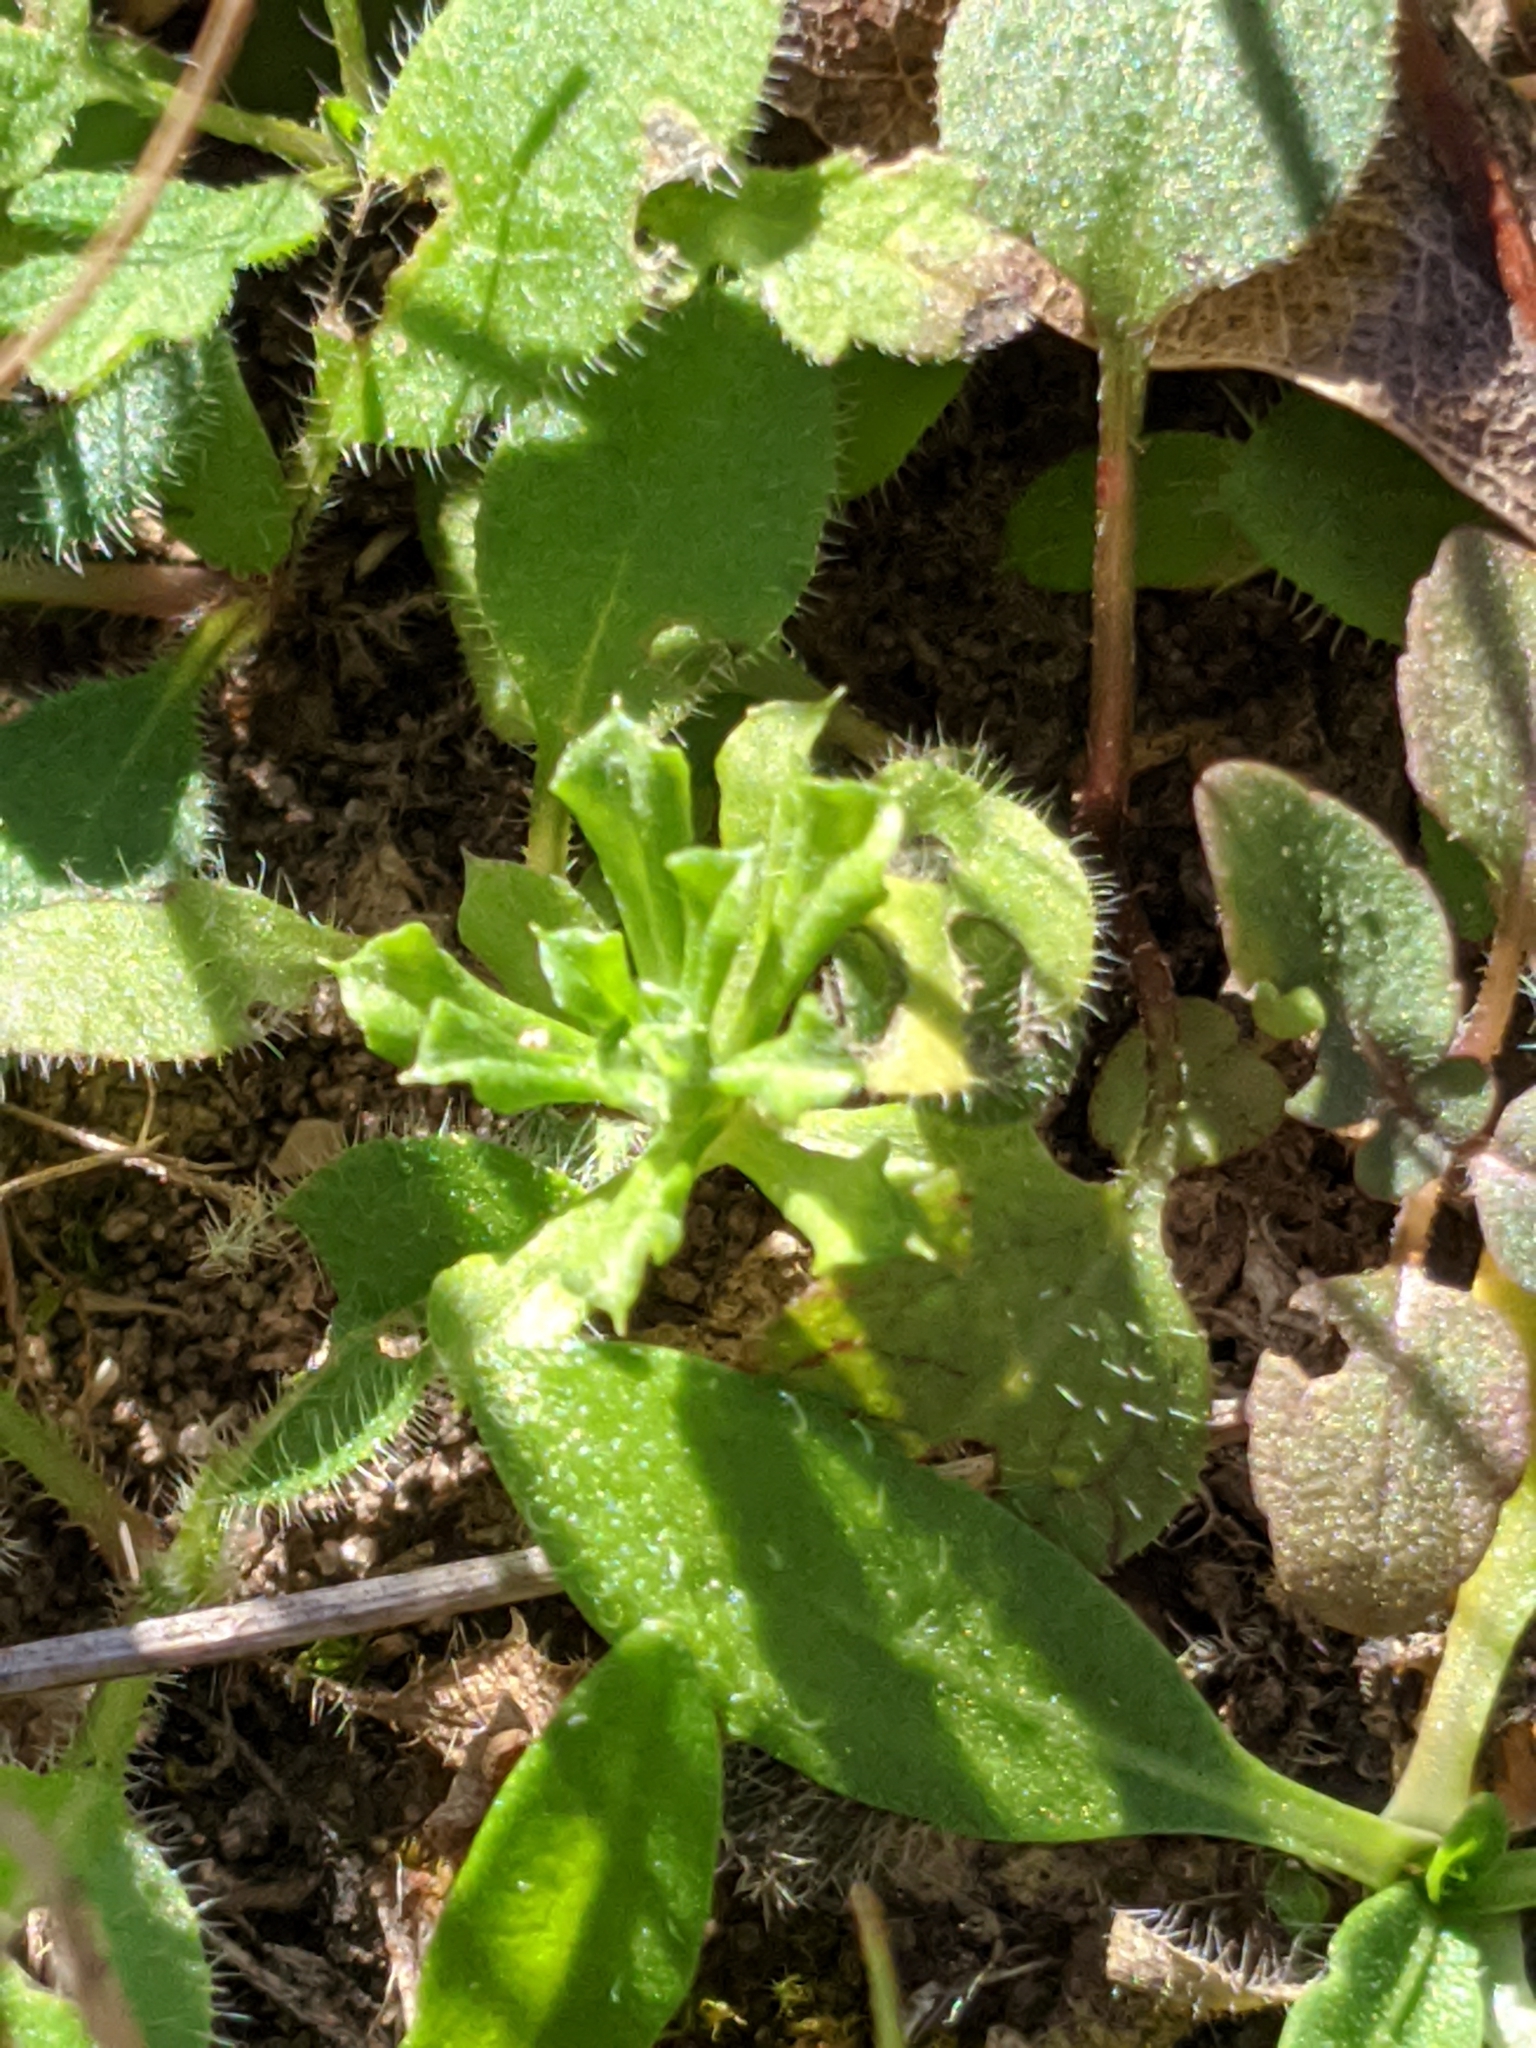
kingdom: Plantae
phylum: Tracheophyta
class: Magnoliopsida
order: Asterales
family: Asteraceae
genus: Facelis
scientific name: Facelis retusa
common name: Annual trampweed
